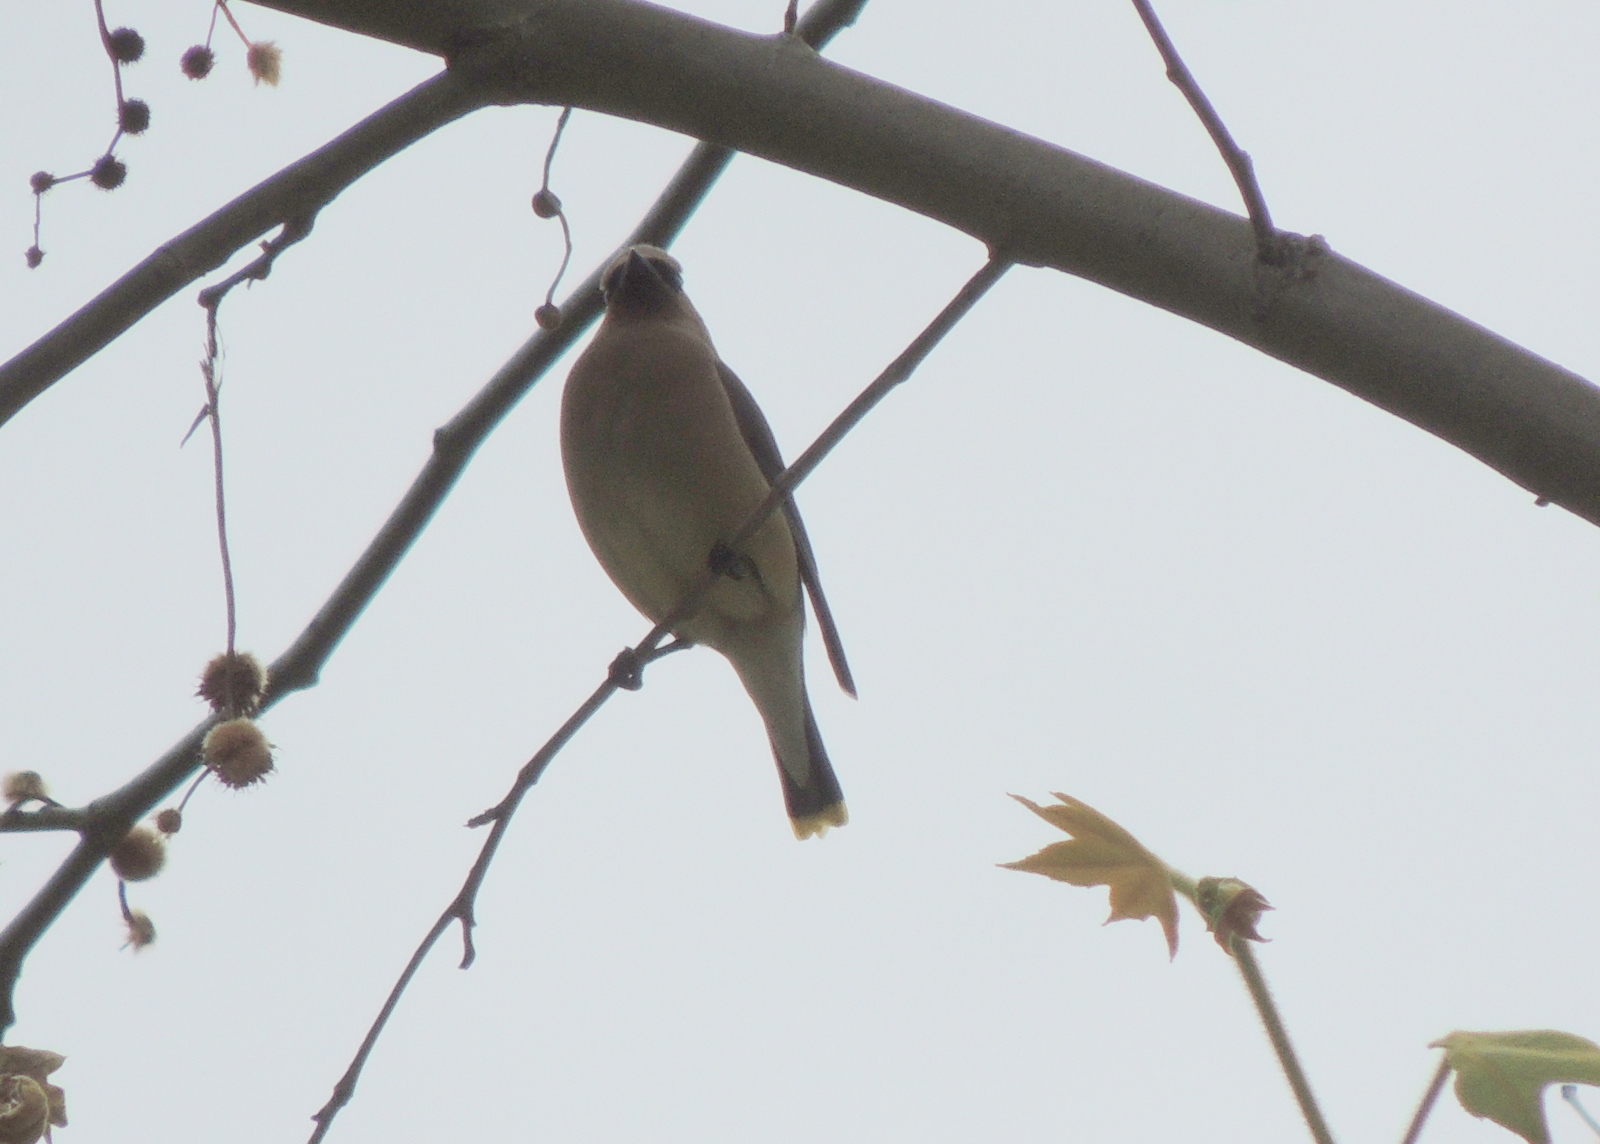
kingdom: Animalia
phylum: Chordata
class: Aves
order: Passeriformes
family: Bombycillidae
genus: Bombycilla
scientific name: Bombycilla cedrorum
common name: Cedar waxwing
